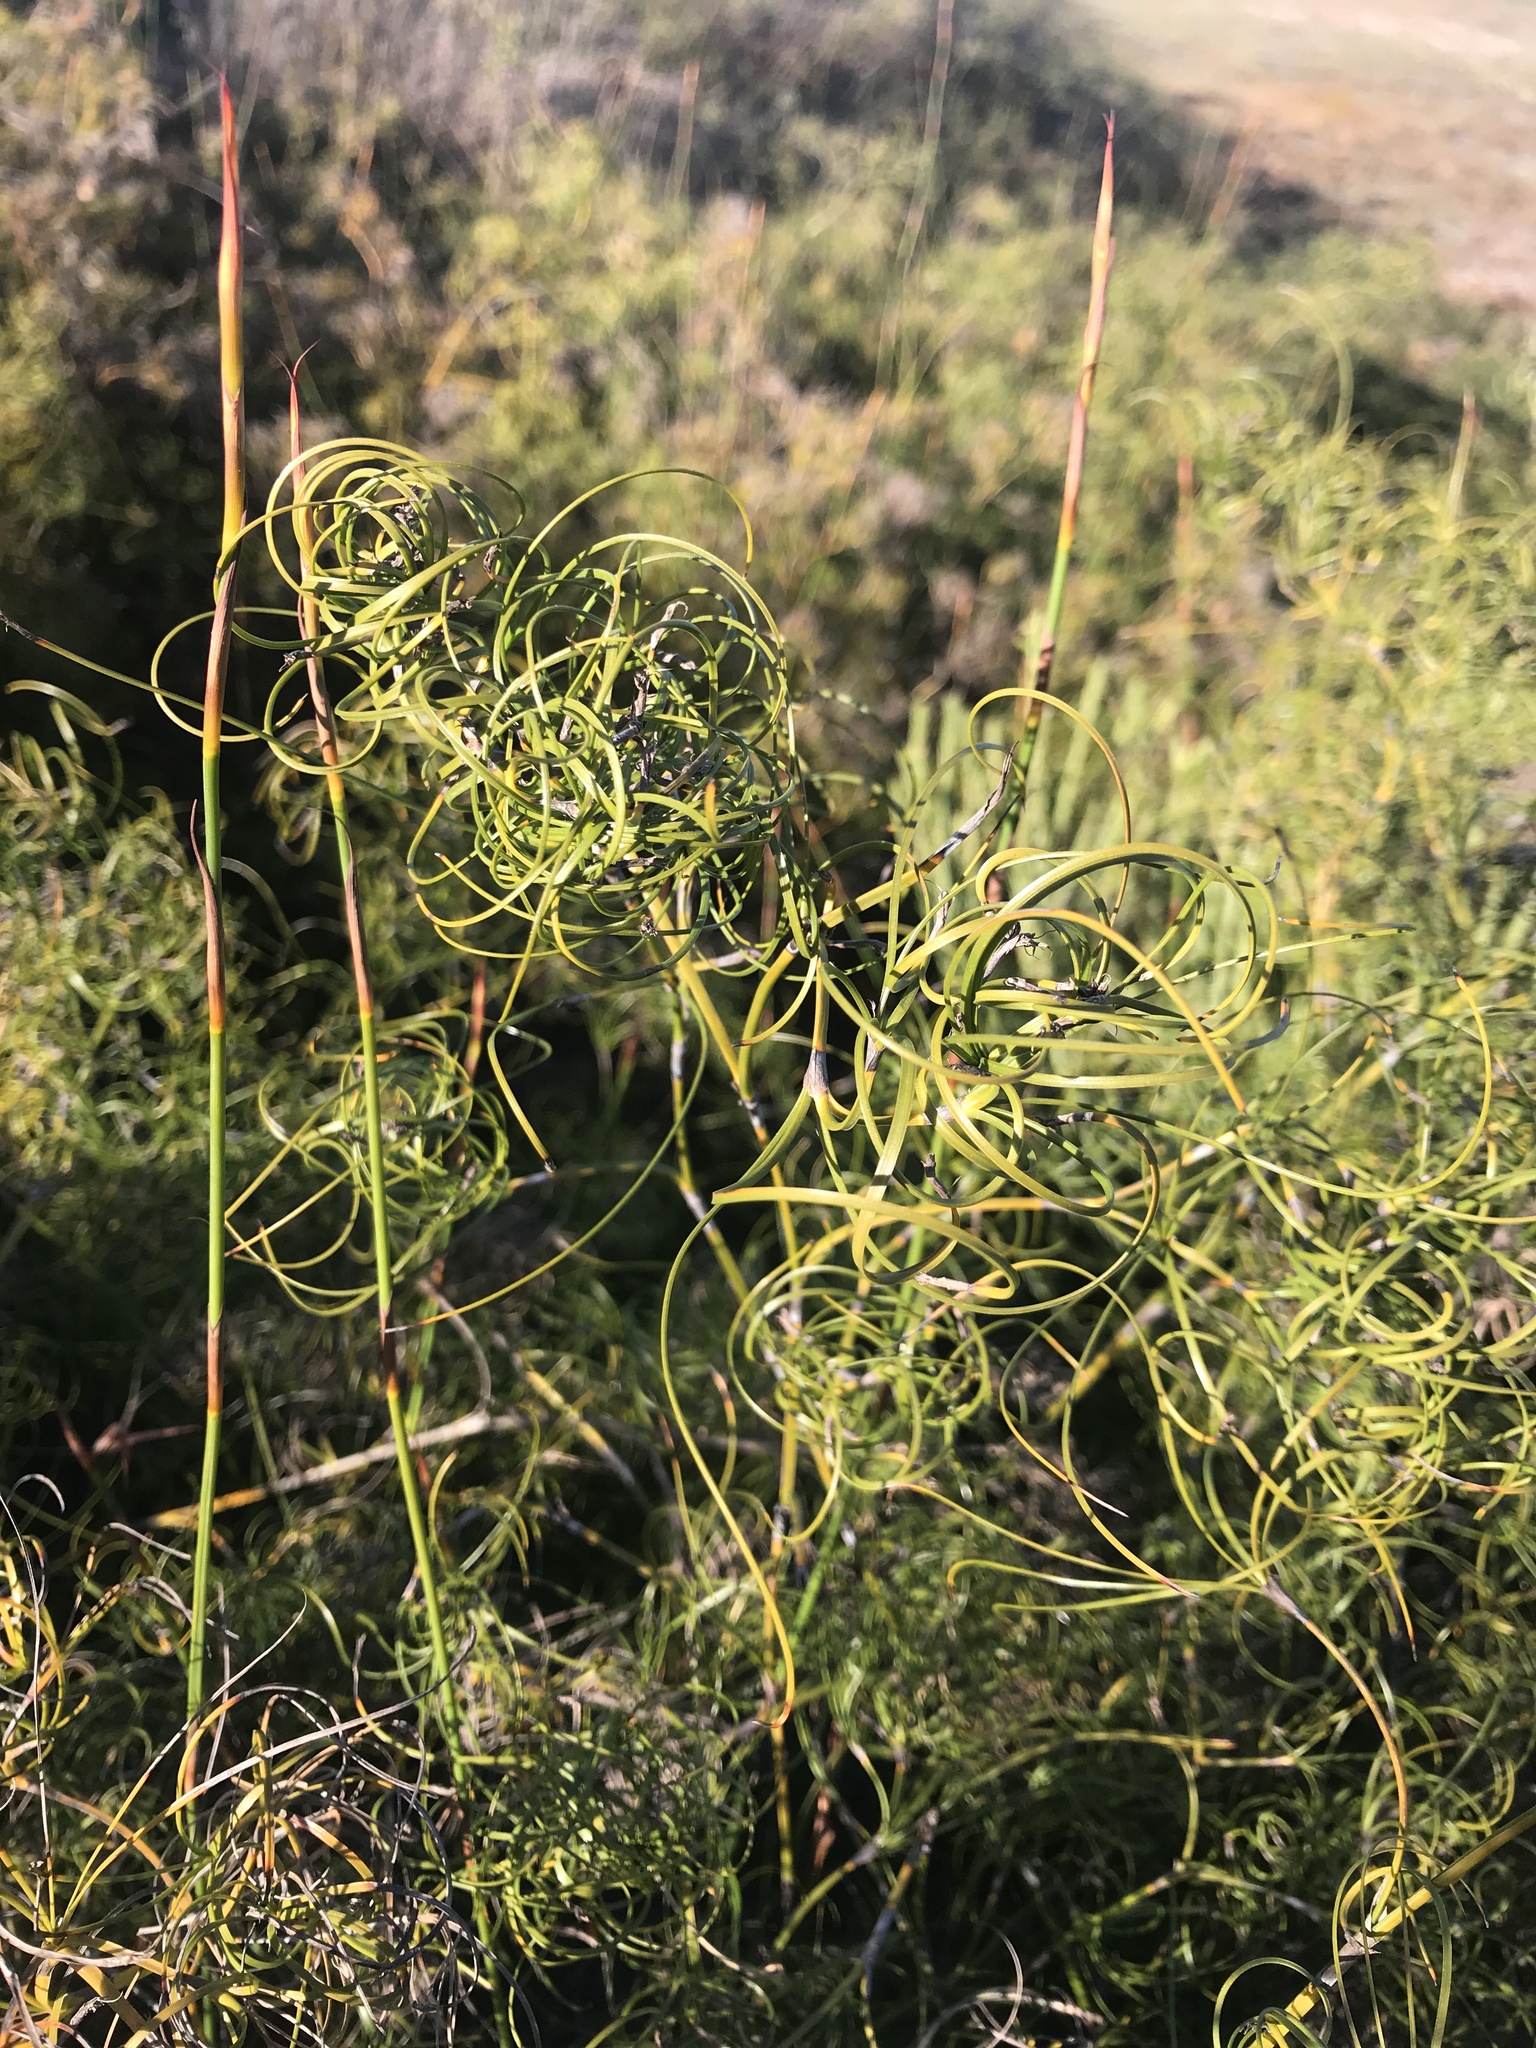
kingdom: Plantae
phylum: Tracheophyta
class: Liliopsida
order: Poales
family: Cyperaceae
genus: Caustis
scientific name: Caustis recurvata
